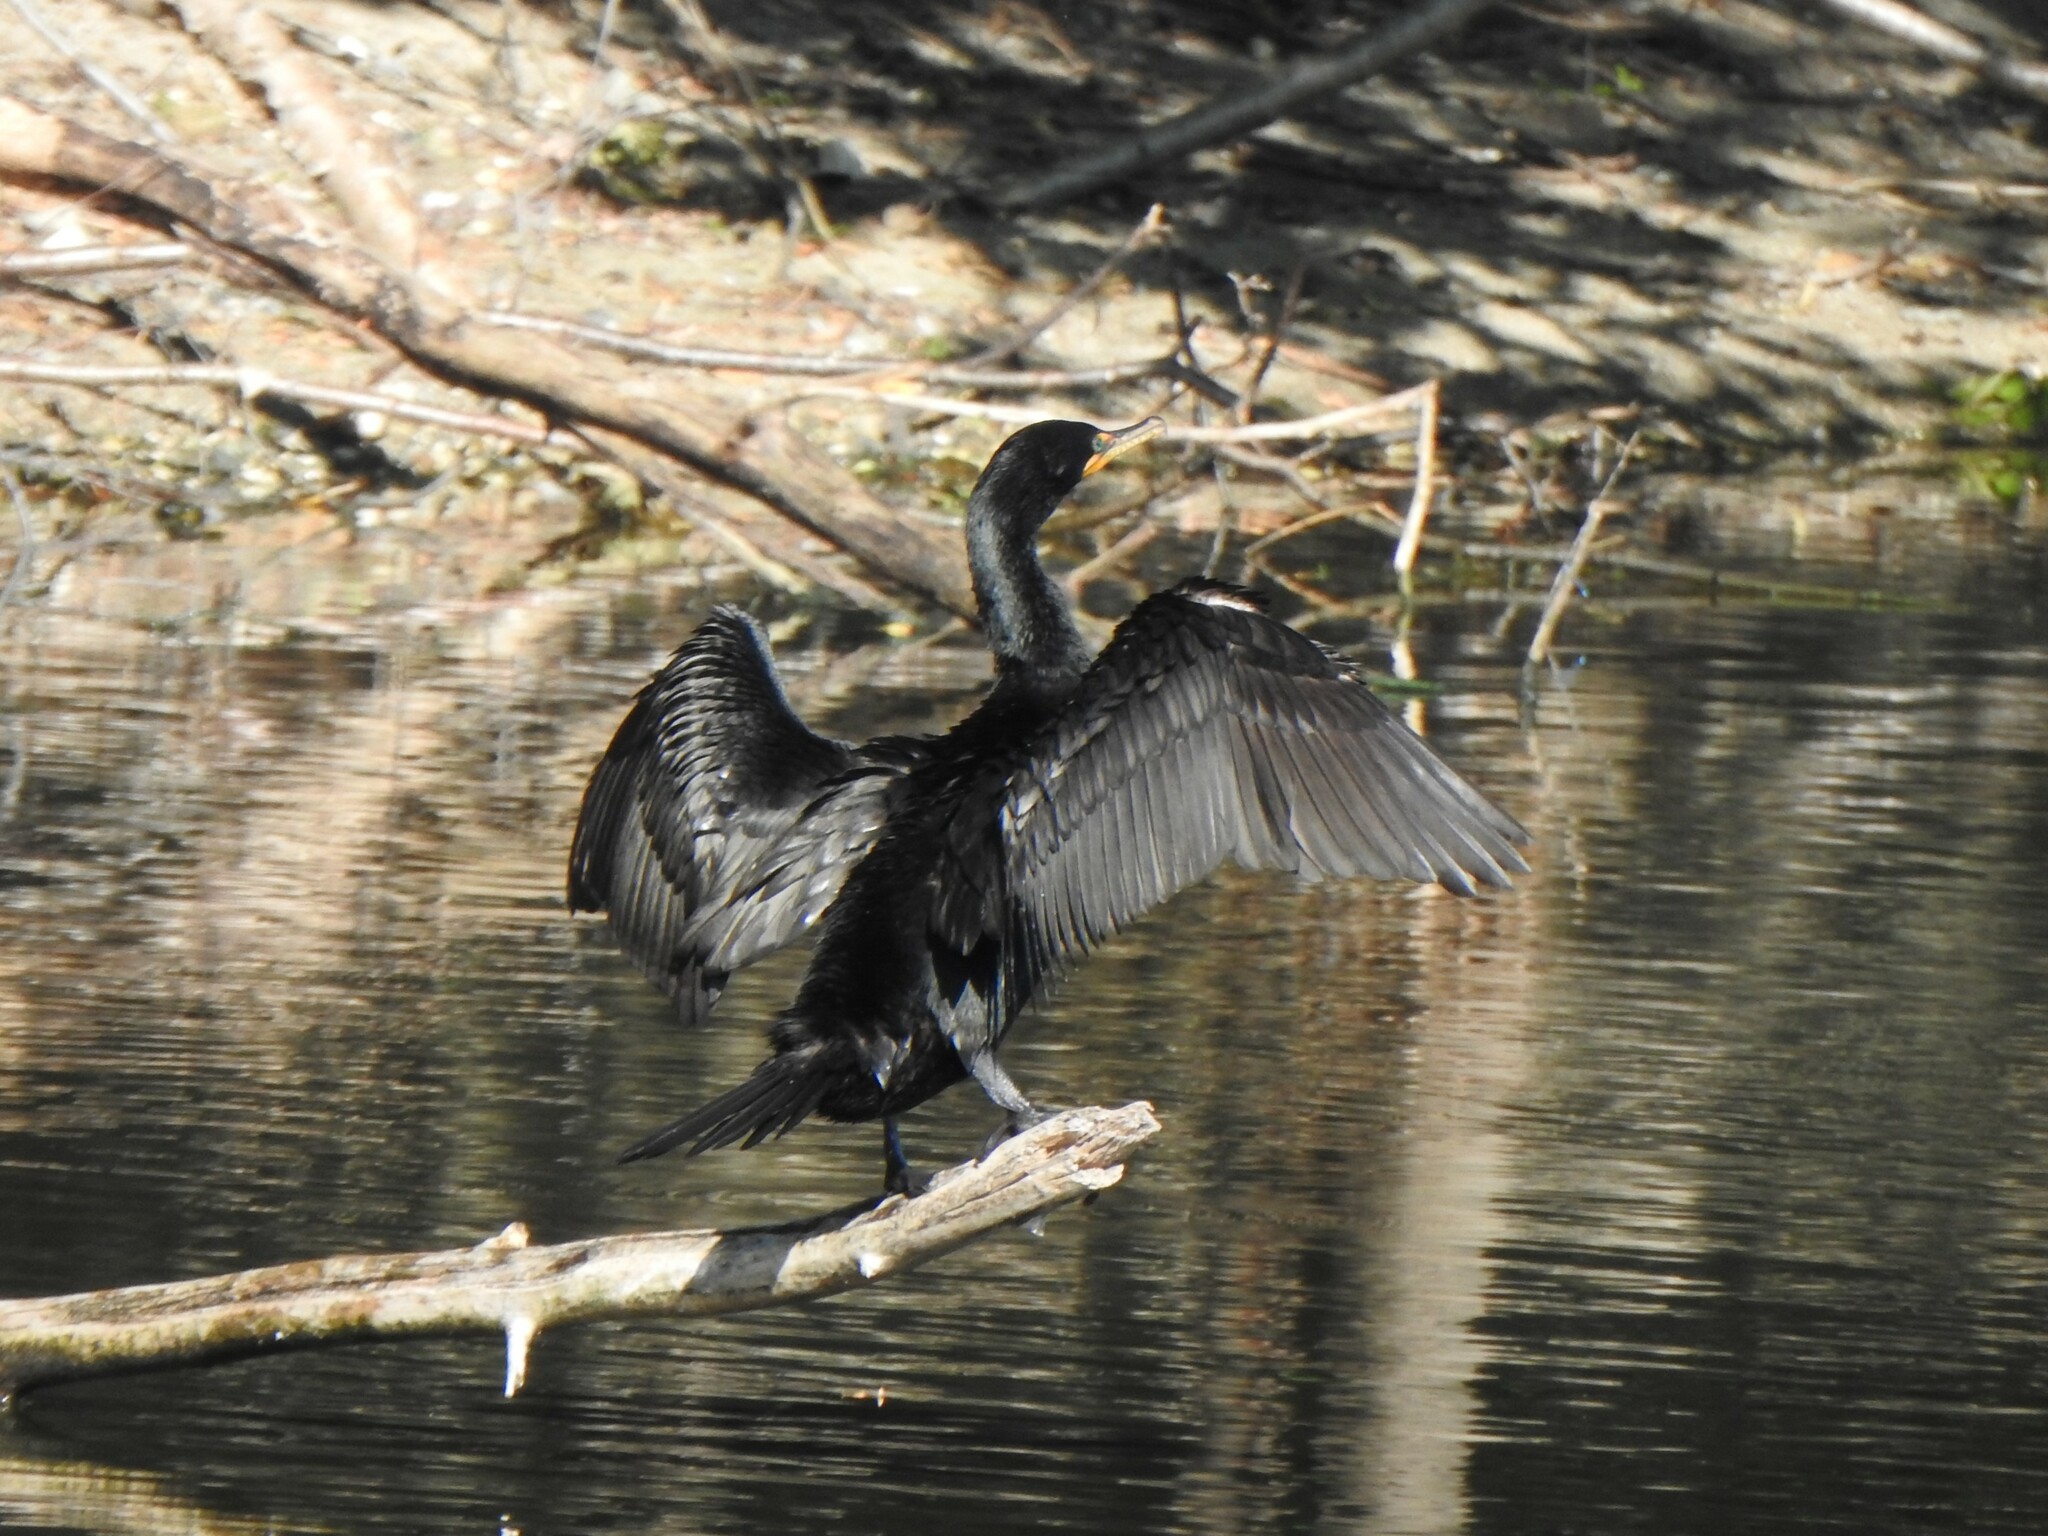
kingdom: Animalia
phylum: Chordata
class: Aves
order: Suliformes
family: Phalacrocoracidae
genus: Phalacrocorax
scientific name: Phalacrocorax auritus
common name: Double-crested cormorant
